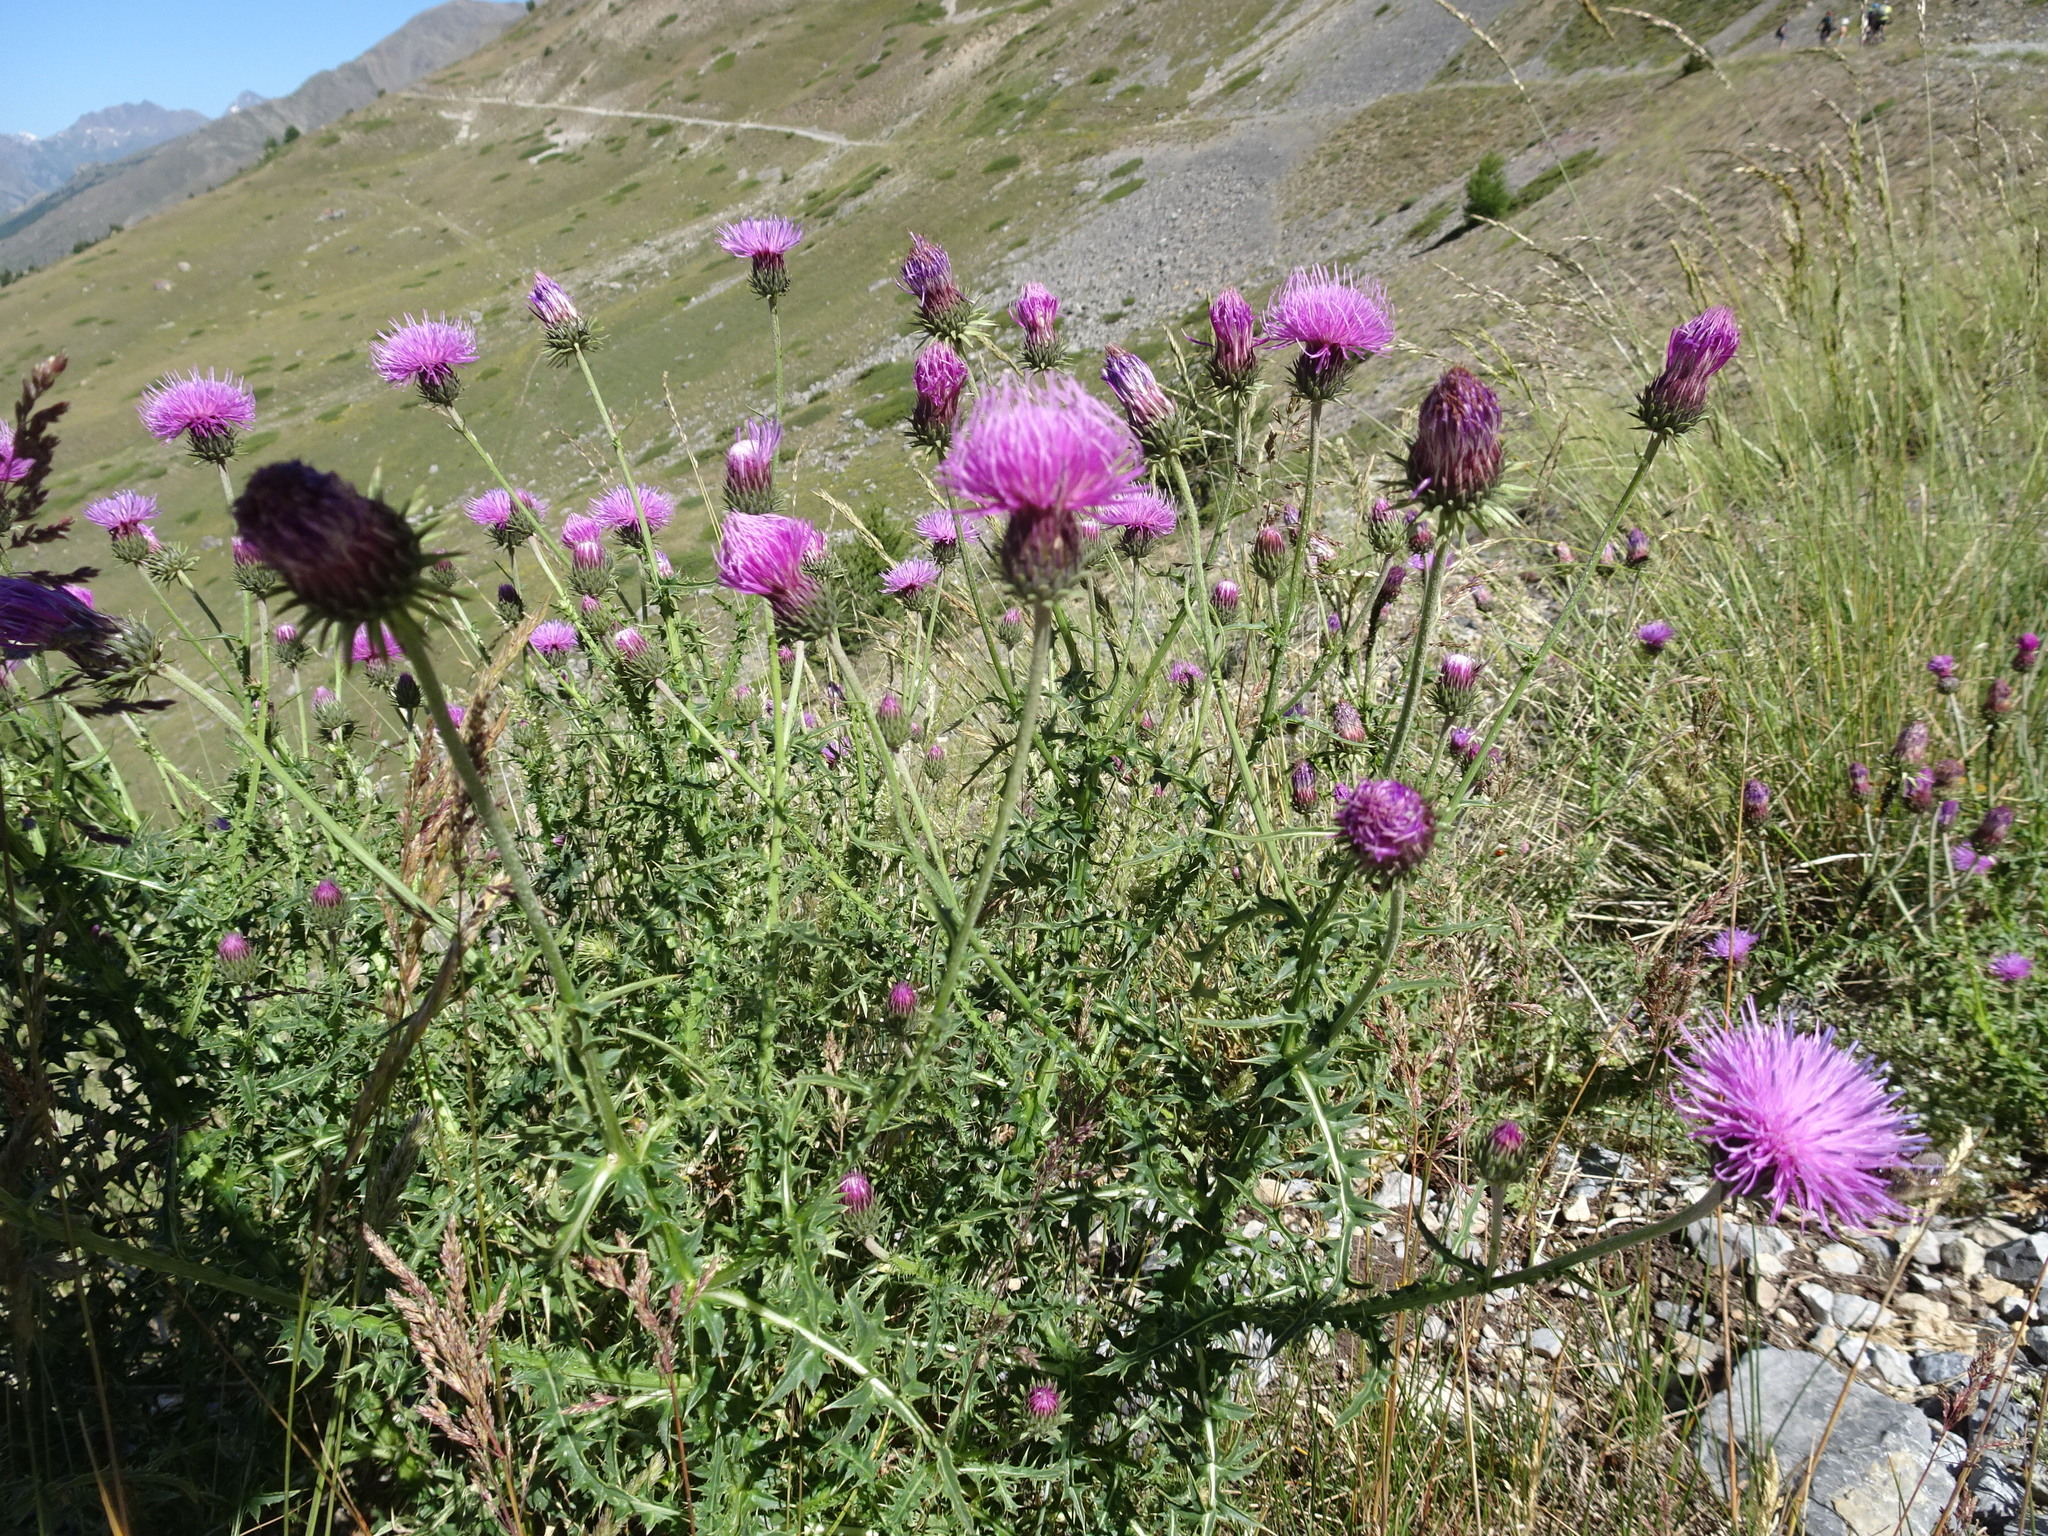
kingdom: Plantae
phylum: Tracheophyta
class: Magnoliopsida
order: Asterales
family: Asteraceae
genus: Carduus
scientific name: Carduus defloratus
